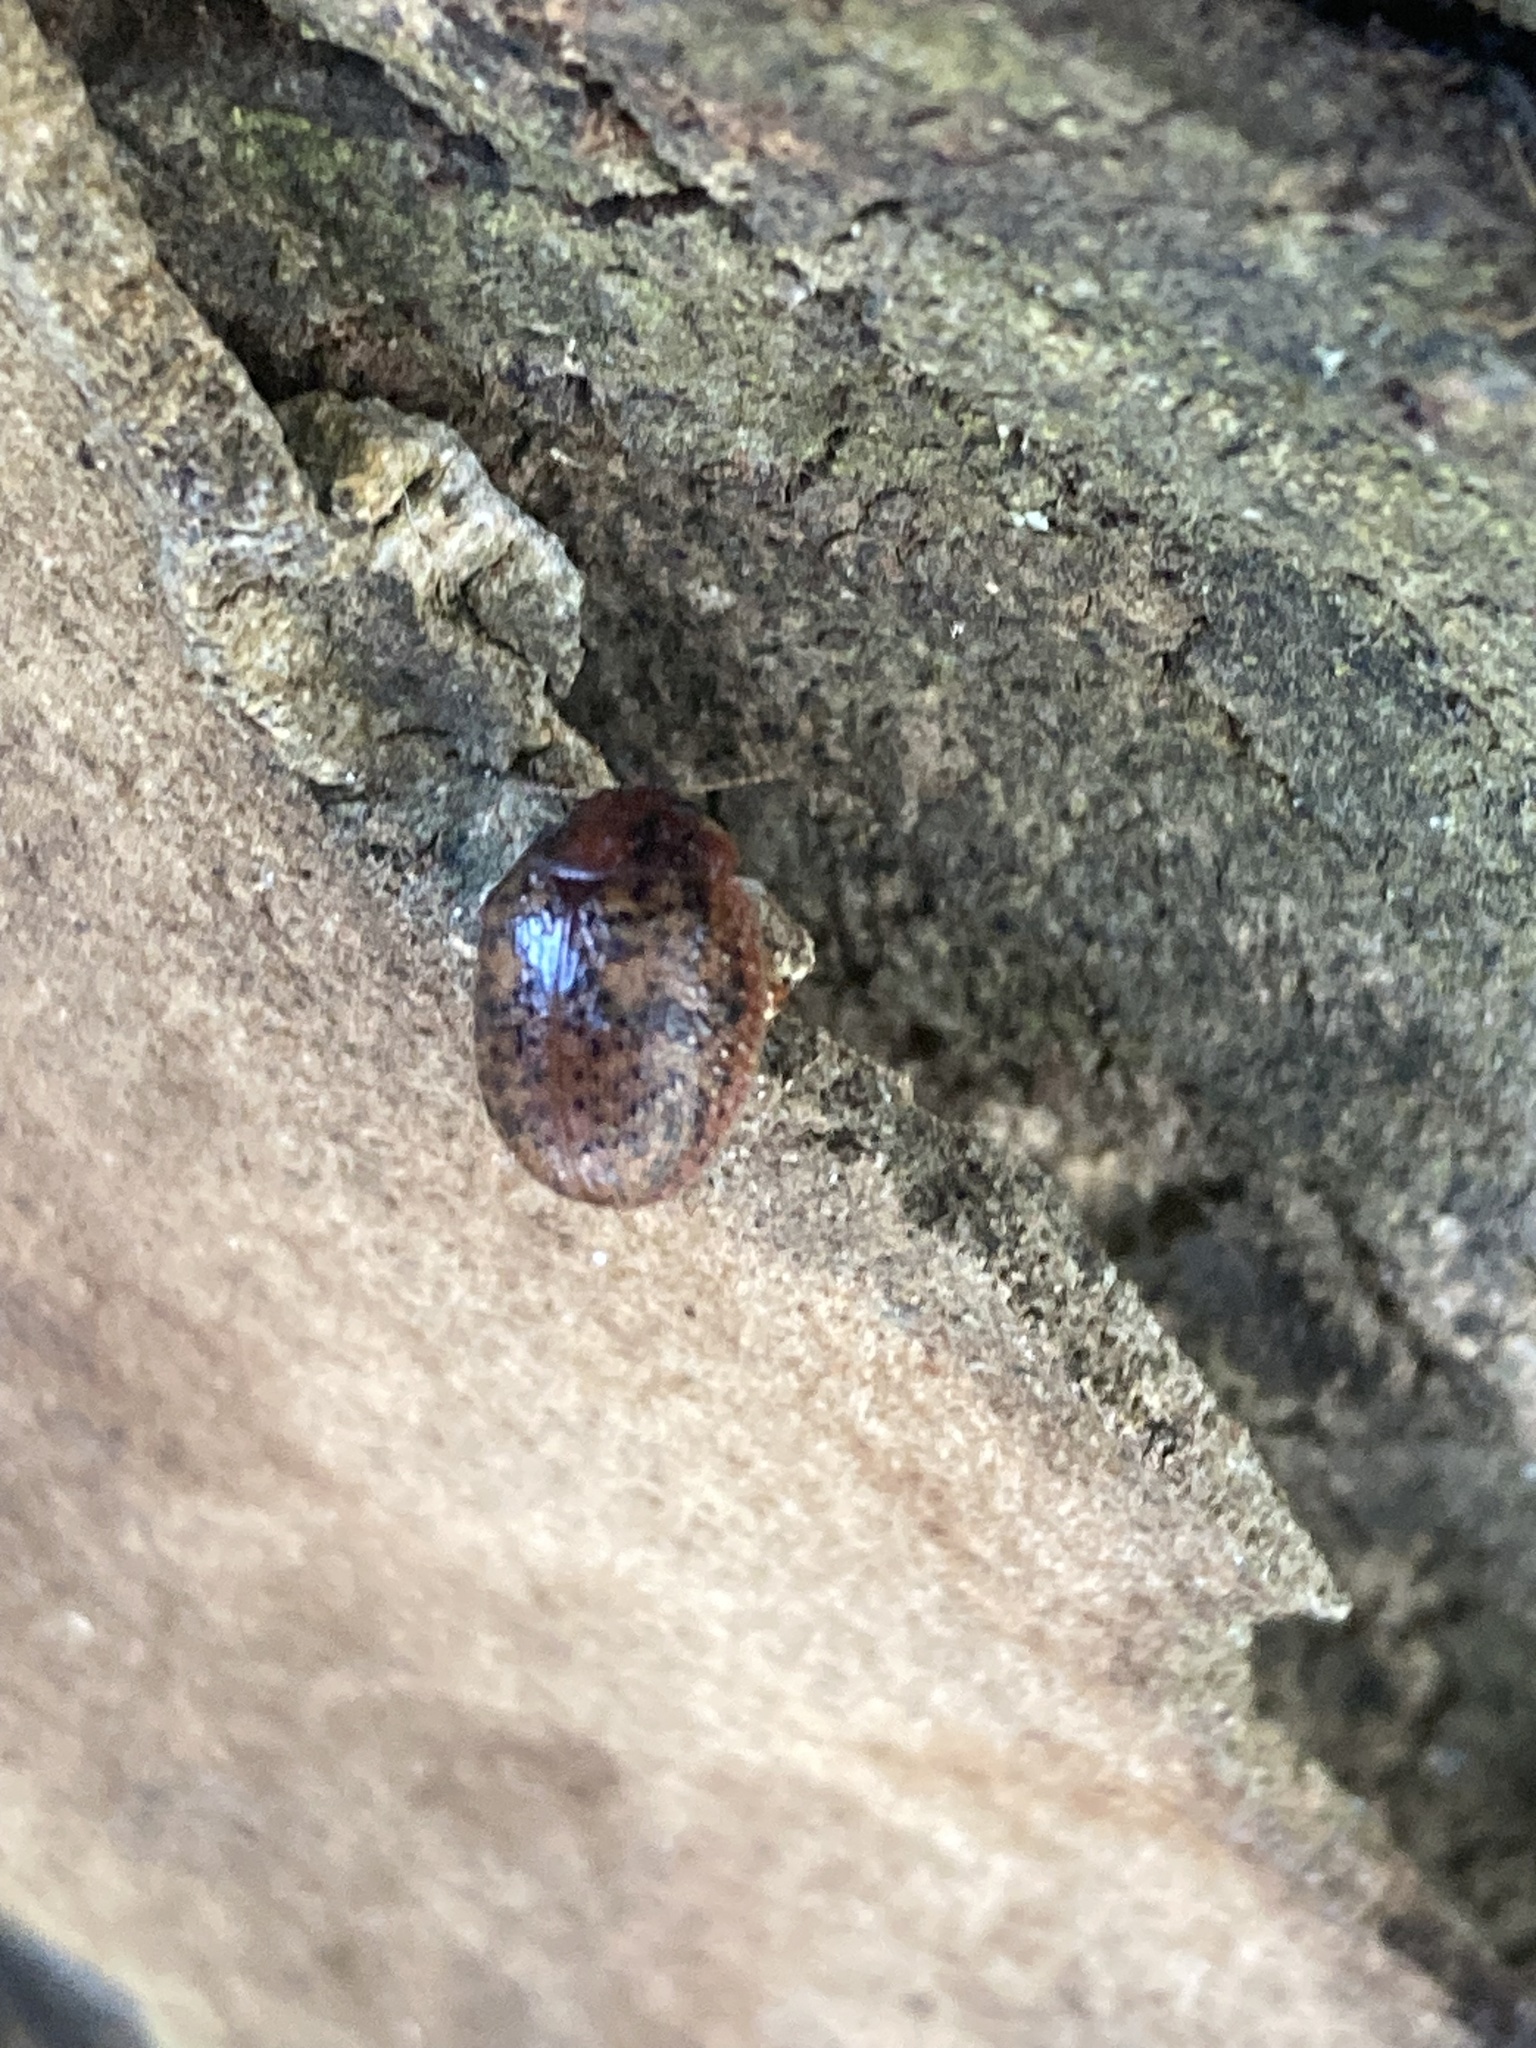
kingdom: Animalia
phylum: Arthropoda
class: Insecta
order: Coleoptera
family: Chrysomelidae
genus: Trachymela
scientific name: Trachymela sloanei
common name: Australian tortoise beetle
